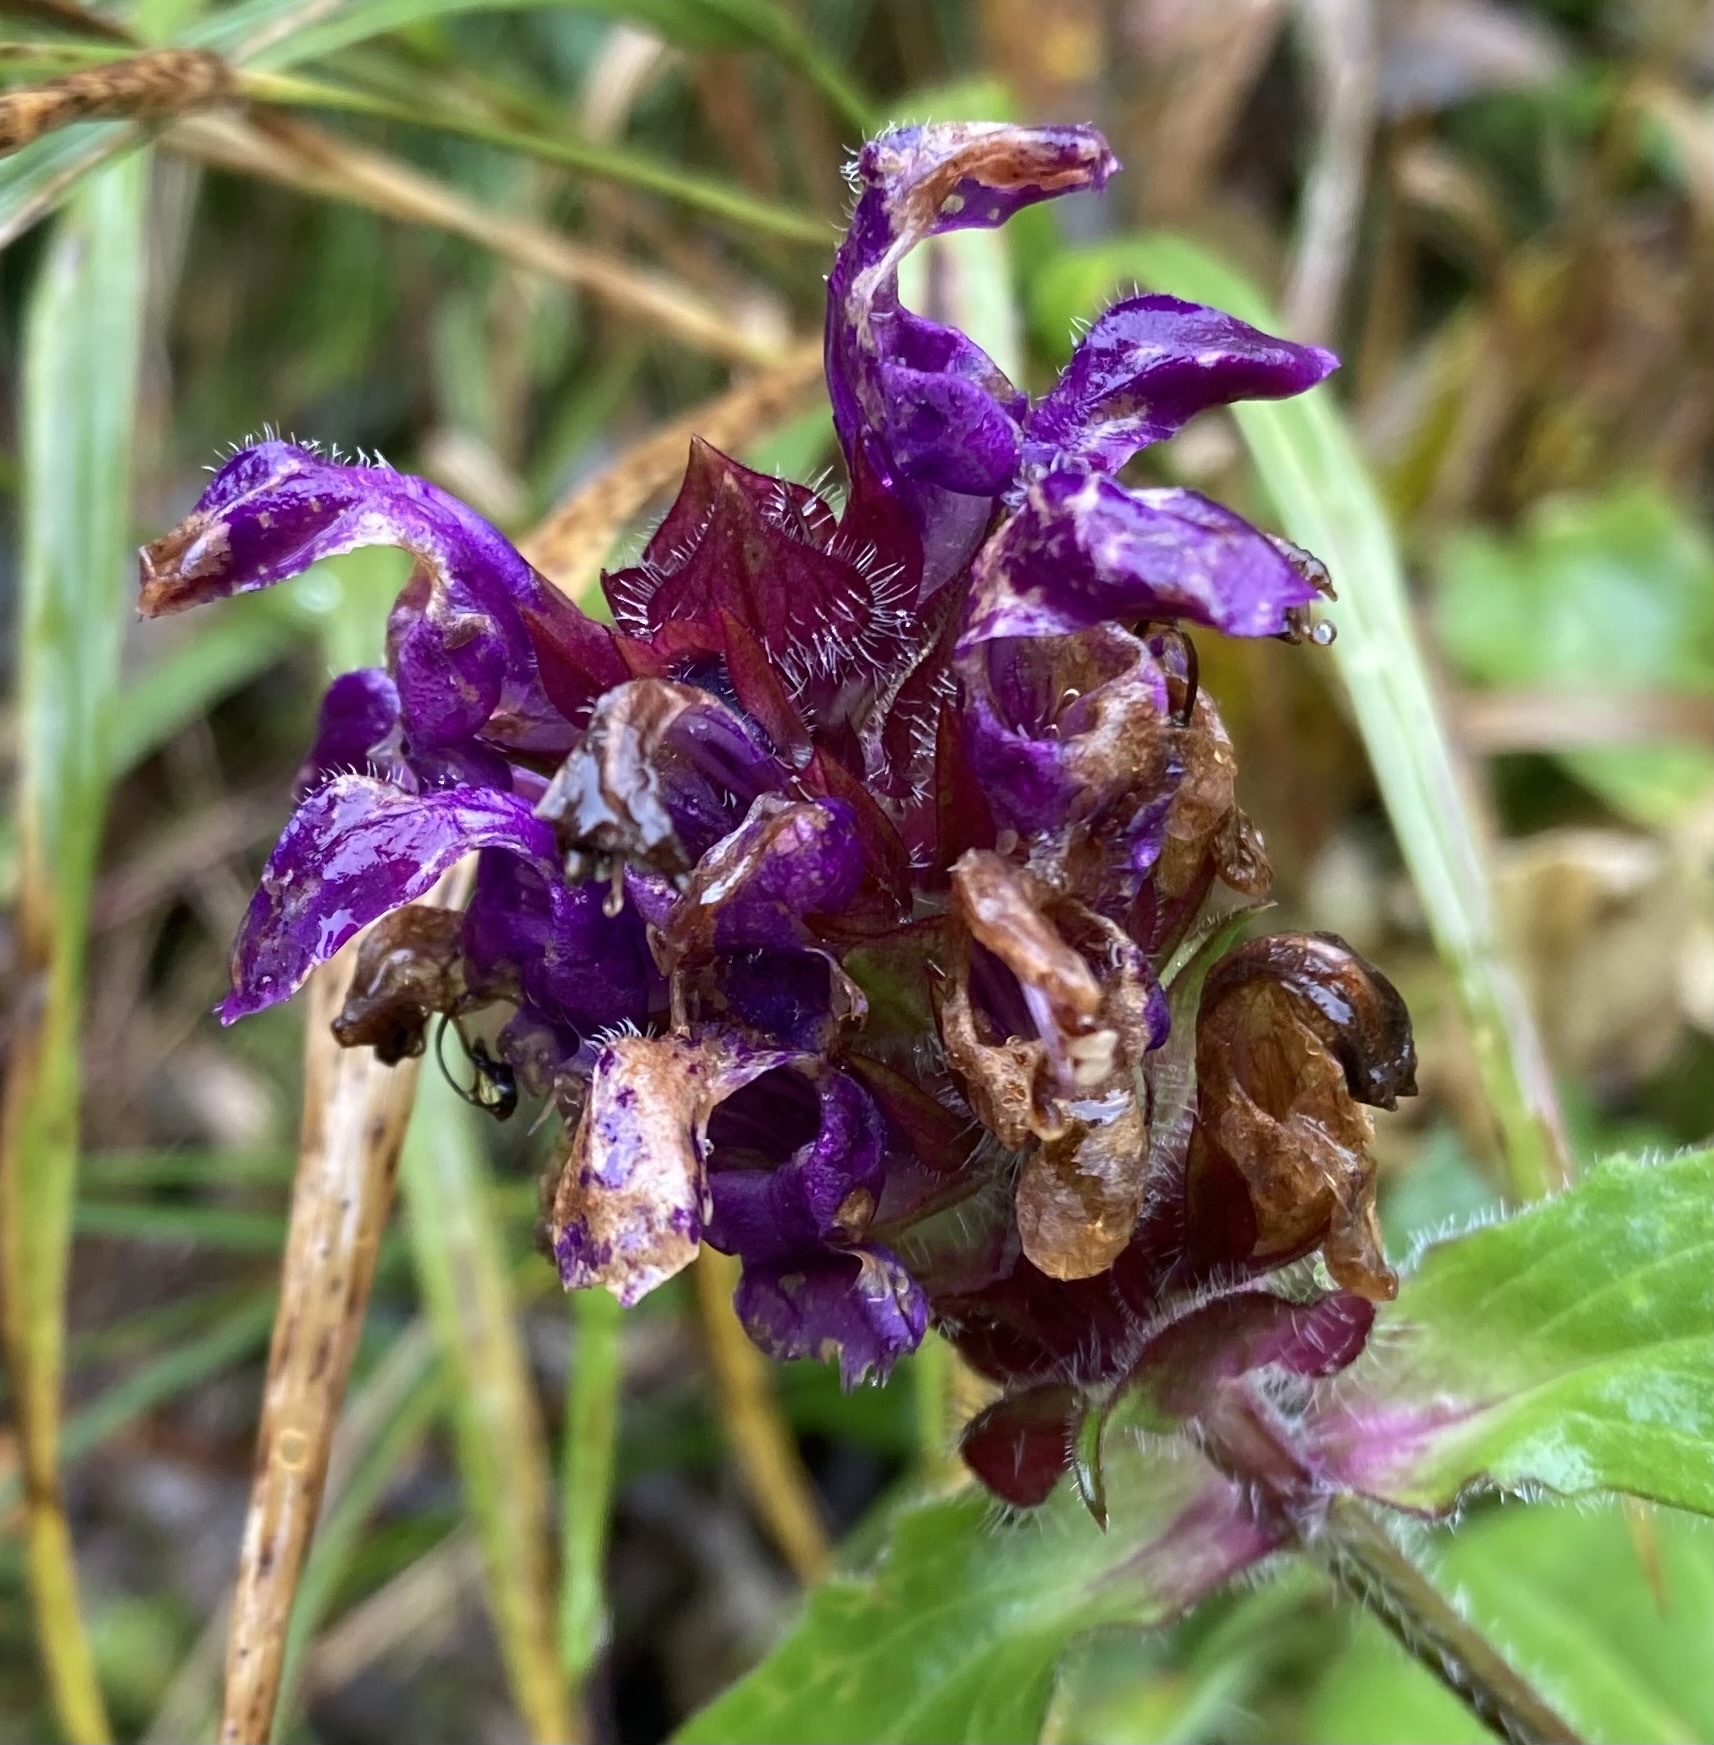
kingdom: Plantae
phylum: Tracheophyta
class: Magnoliopsida
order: Lamiales
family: Lamiaceae
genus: Prunella
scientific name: Prunella grandiflora
